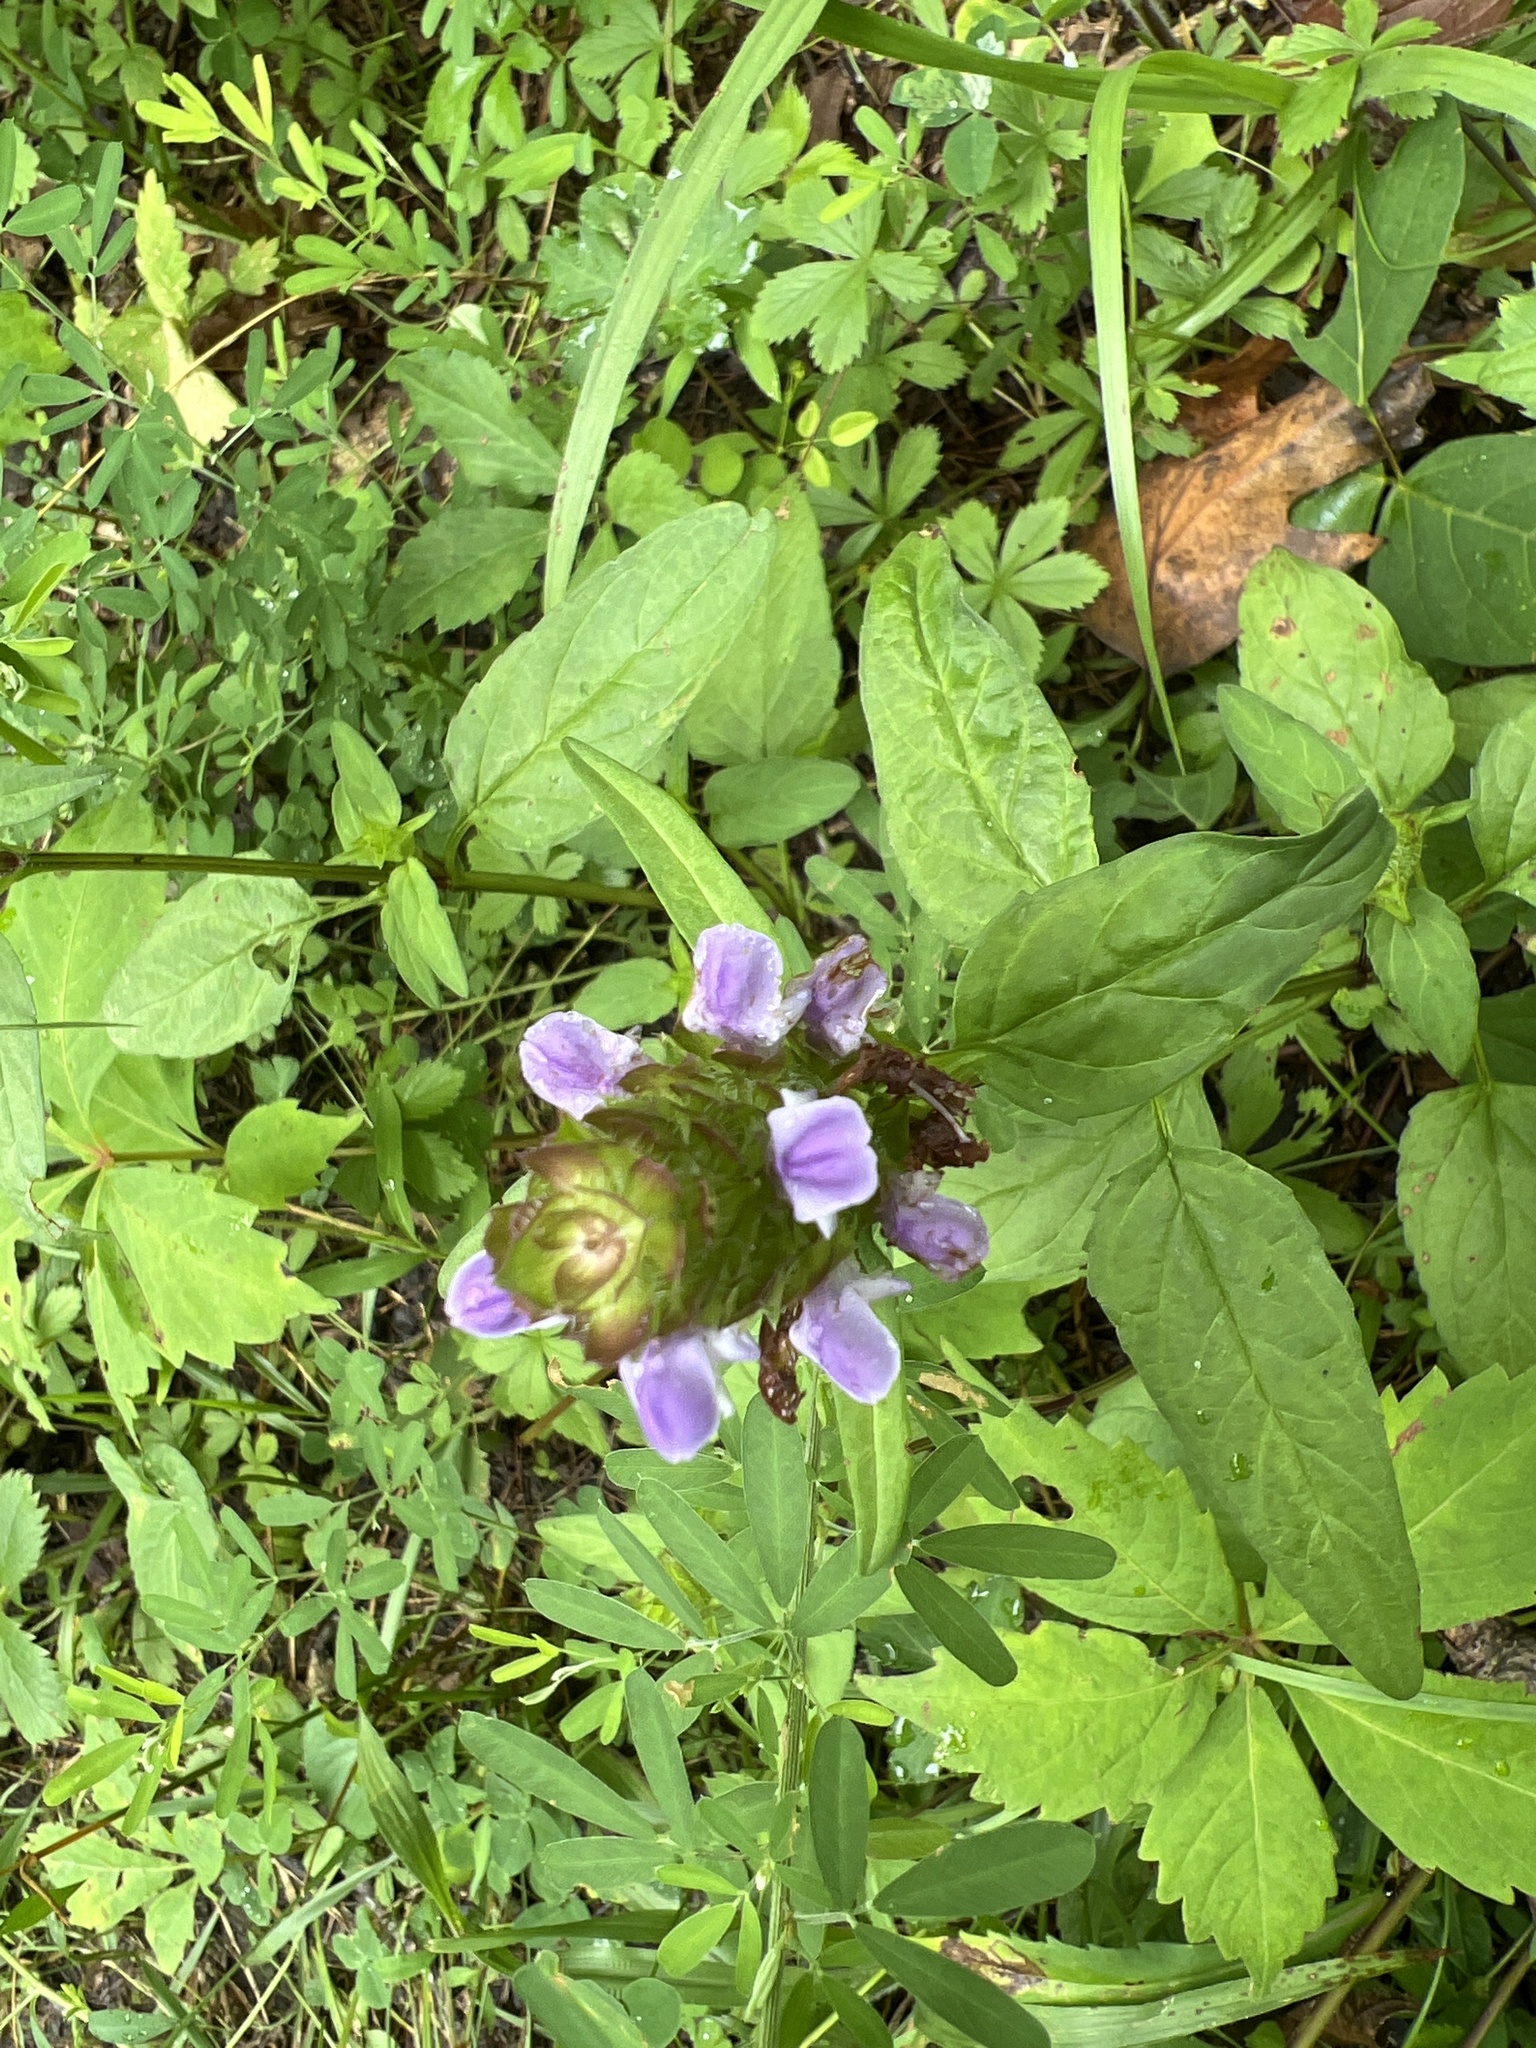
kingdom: Plantae
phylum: Tracheophyta
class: Magnoliopsida
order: Lamiales
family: Lamiaceae
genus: Prunella
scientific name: Prunella vulgaris
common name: Heal-all
